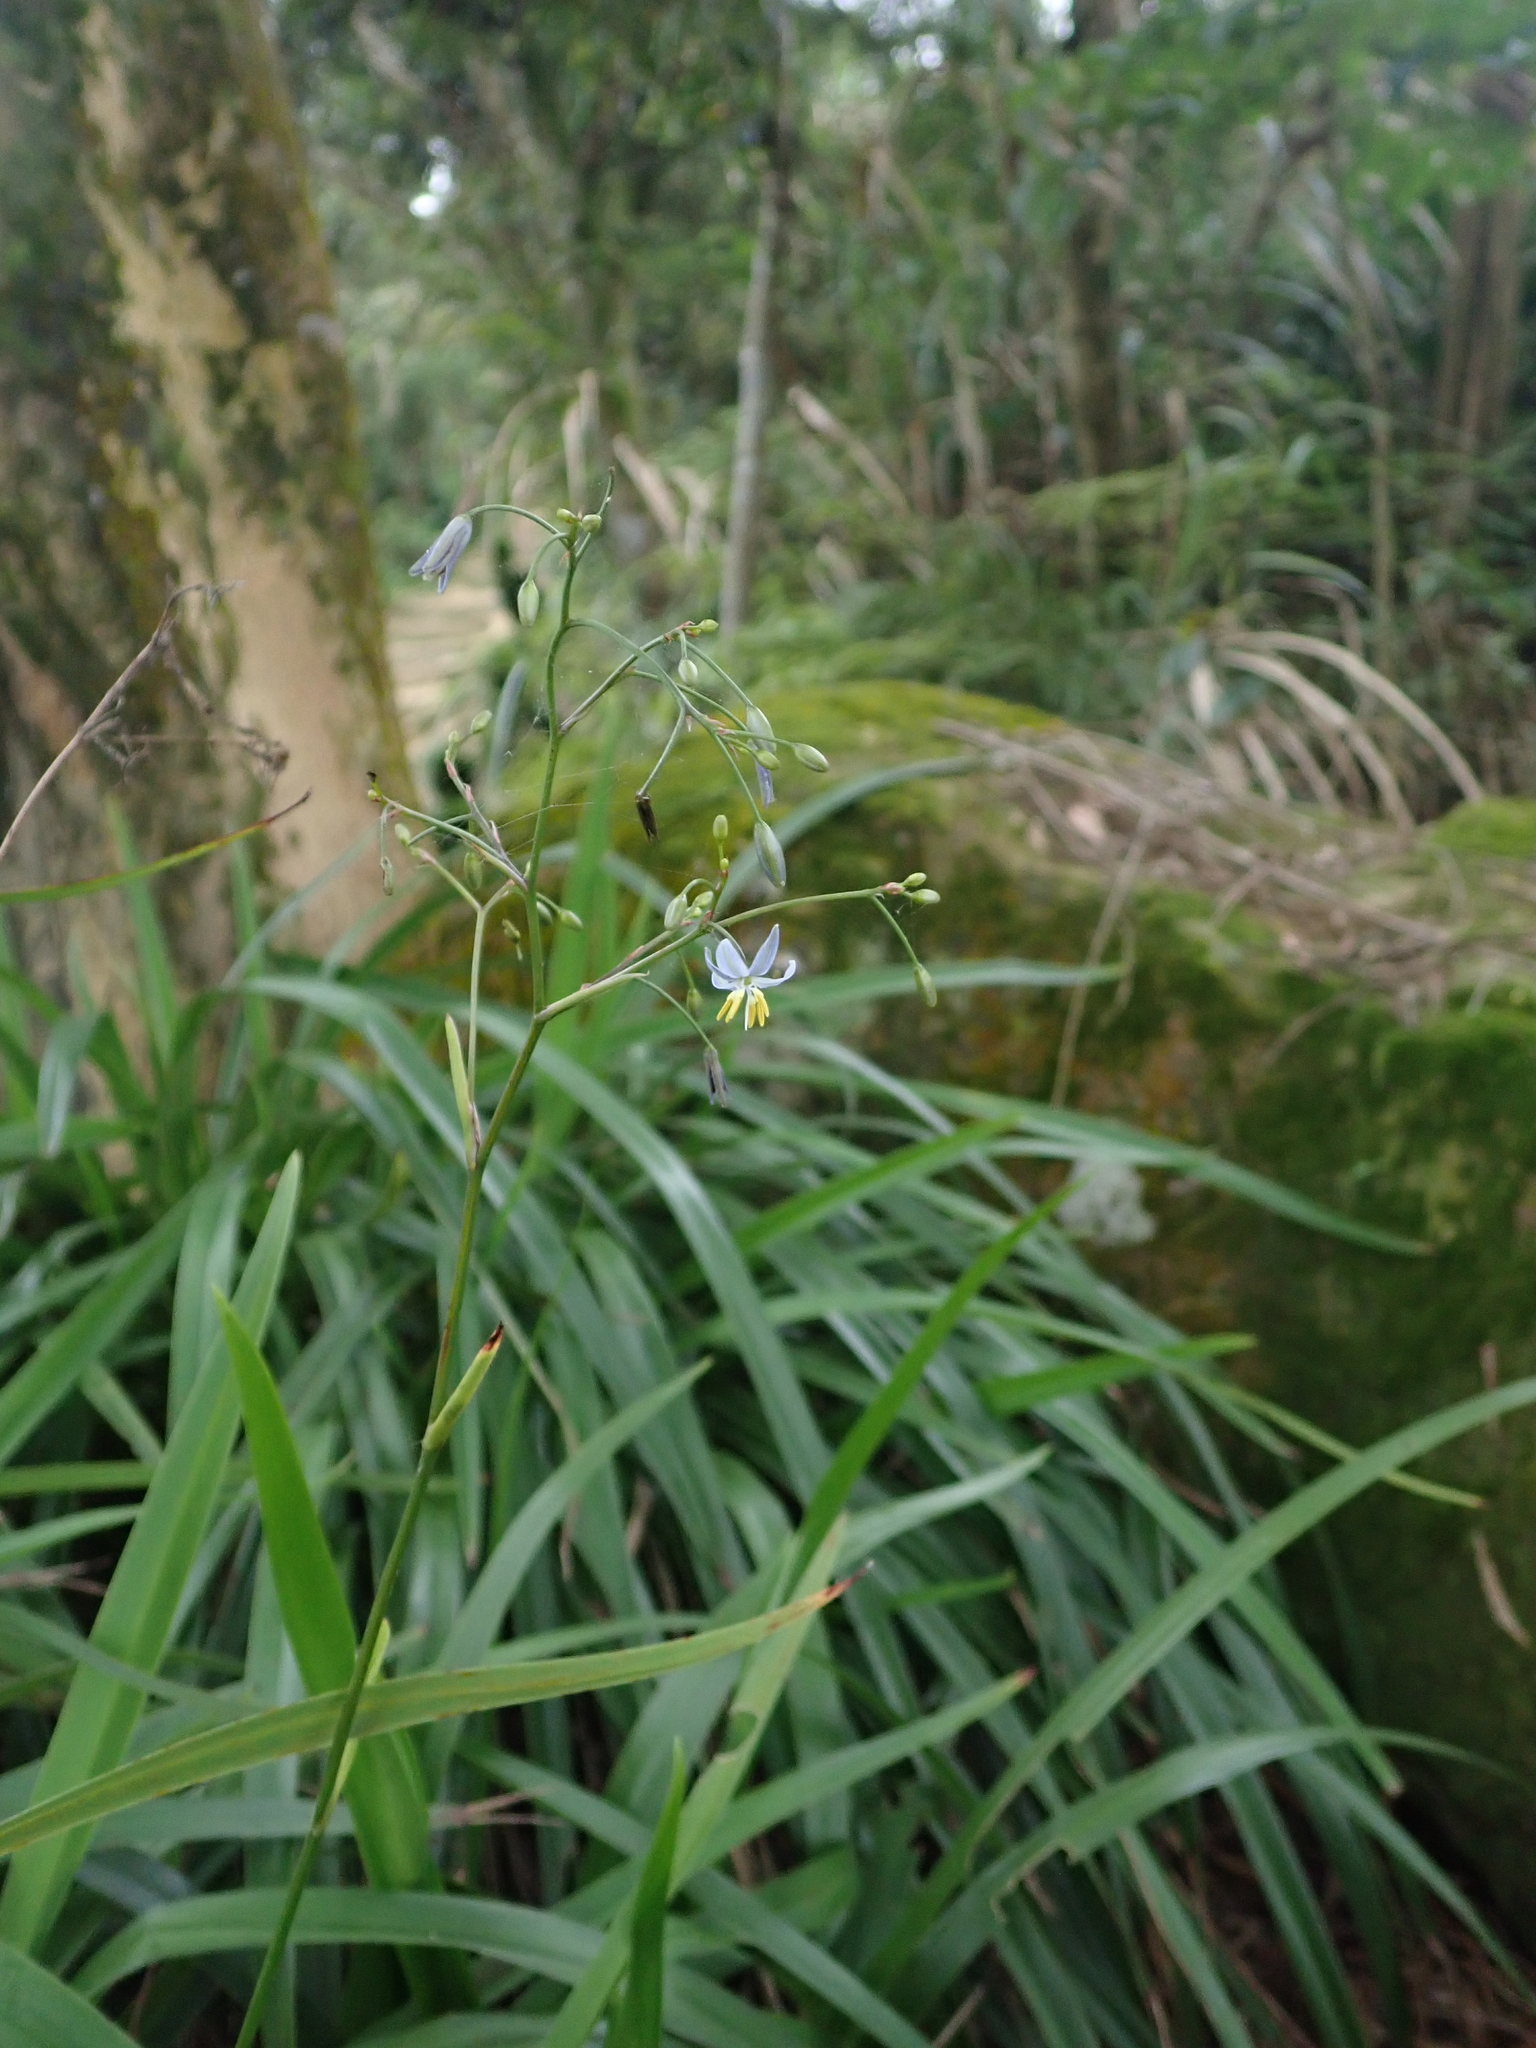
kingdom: Plantae
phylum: Tracheophyta
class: Liliopsida
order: Asparagales
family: Asphodelaceae
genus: Dianella
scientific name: Dianella ensifolia
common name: New zealand lilyplant
